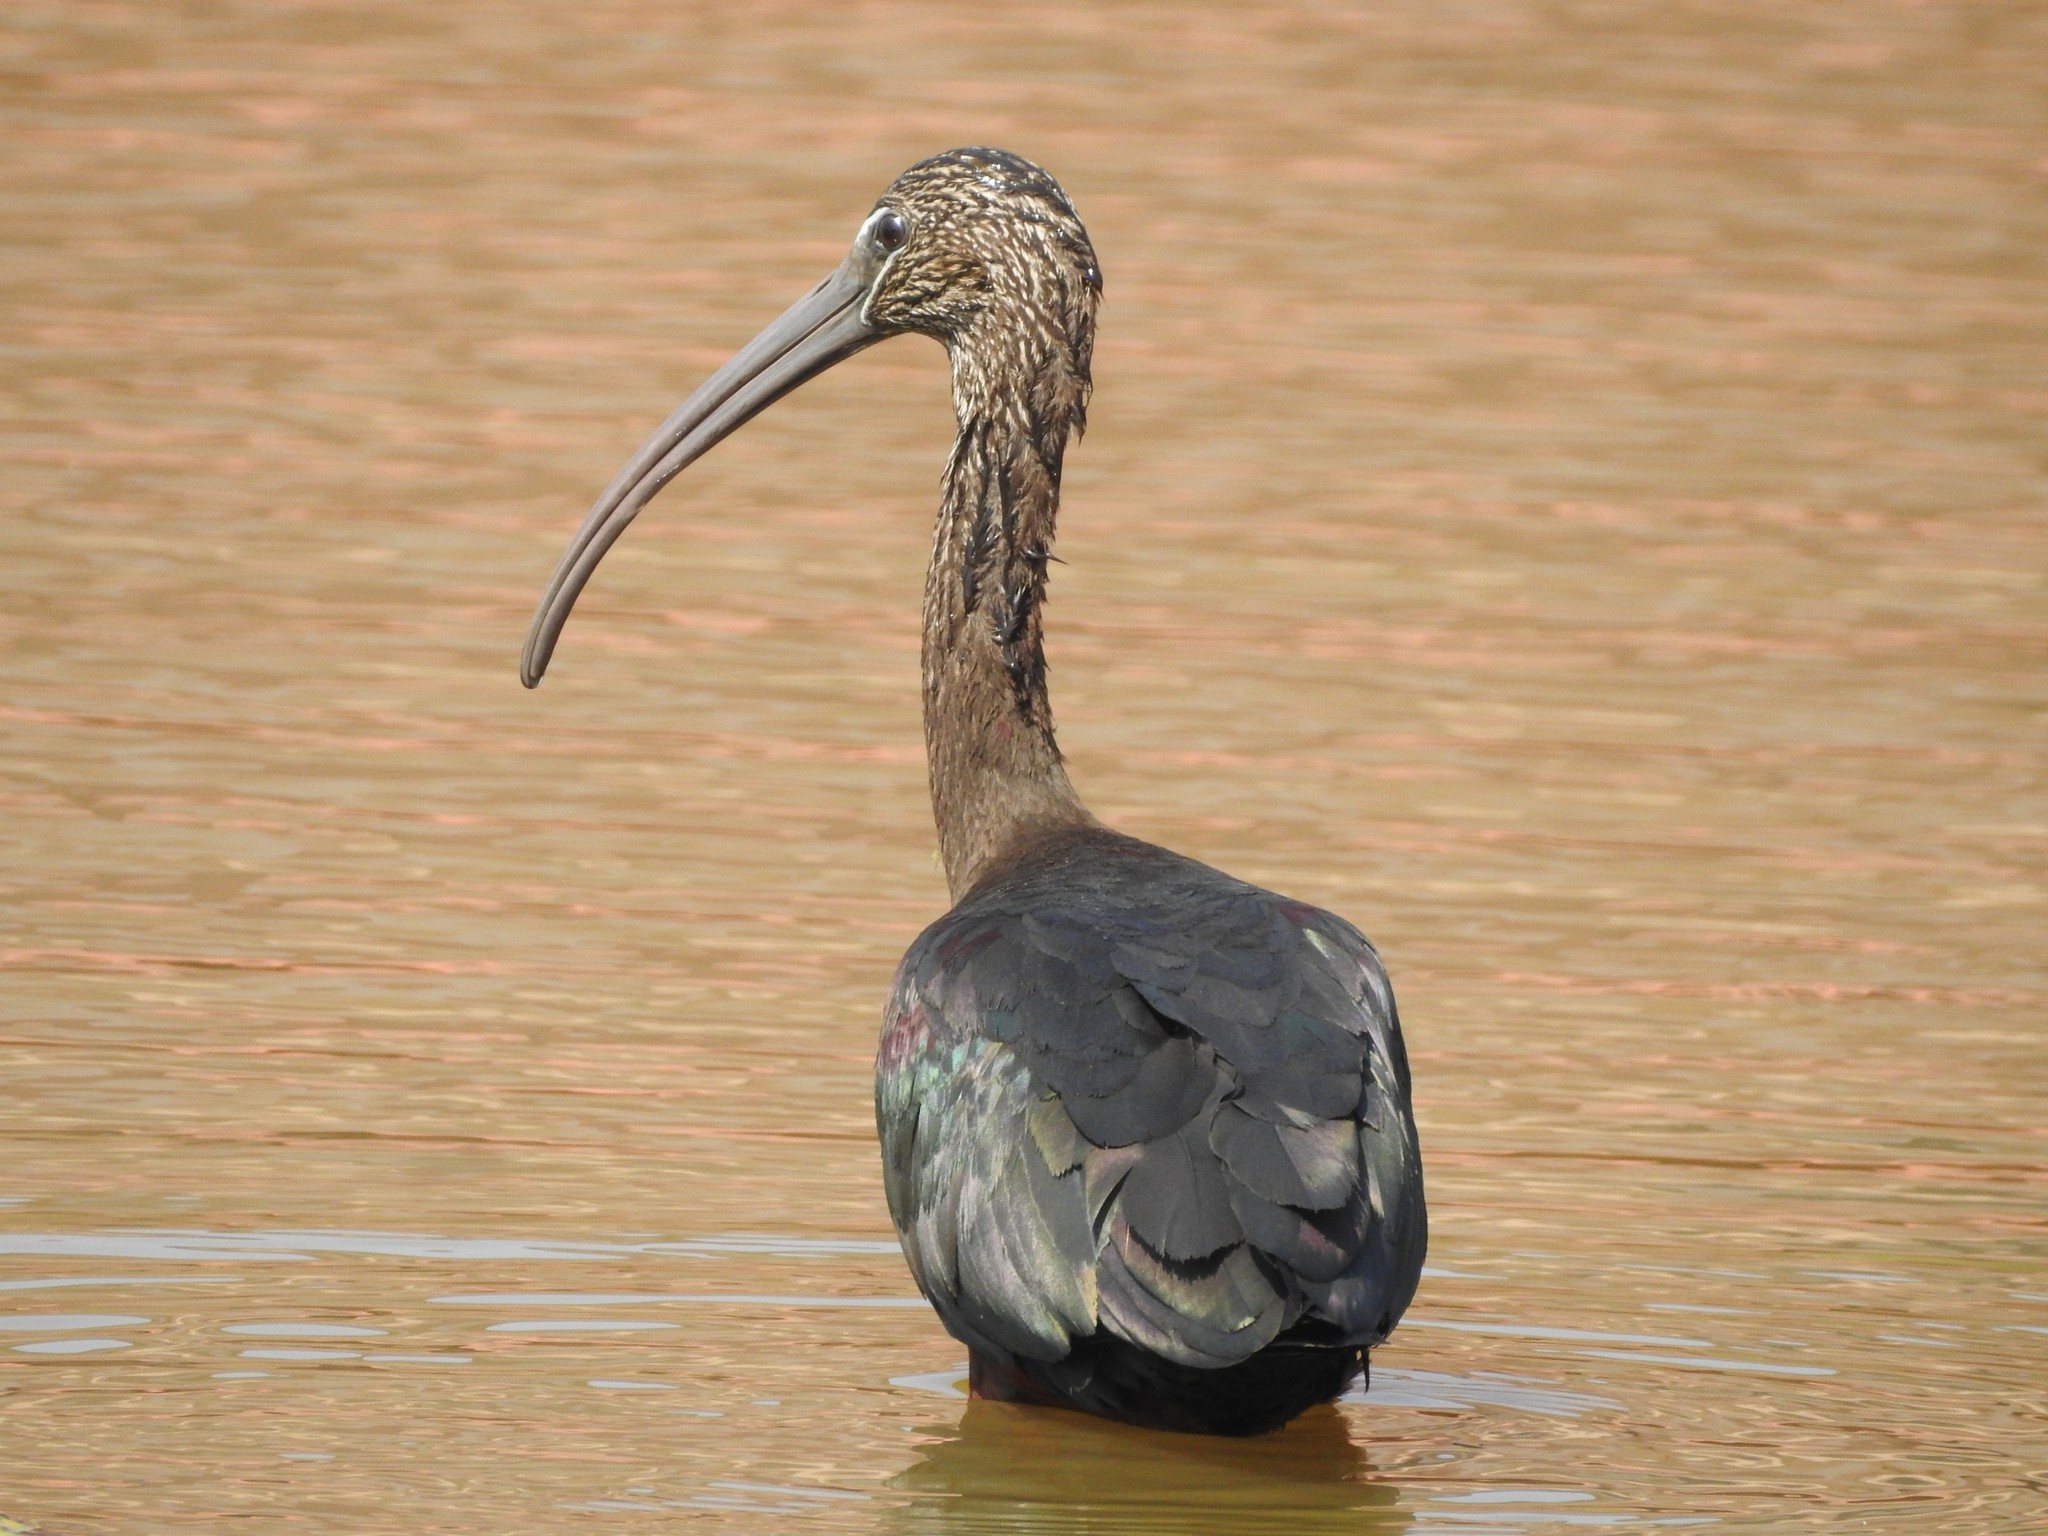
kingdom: Animalia
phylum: Chordata
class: Aves
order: Pelecaniformes
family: Threskiornithidae
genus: Plegadis
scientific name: Plegadis falcinellus
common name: Glossy ibis
